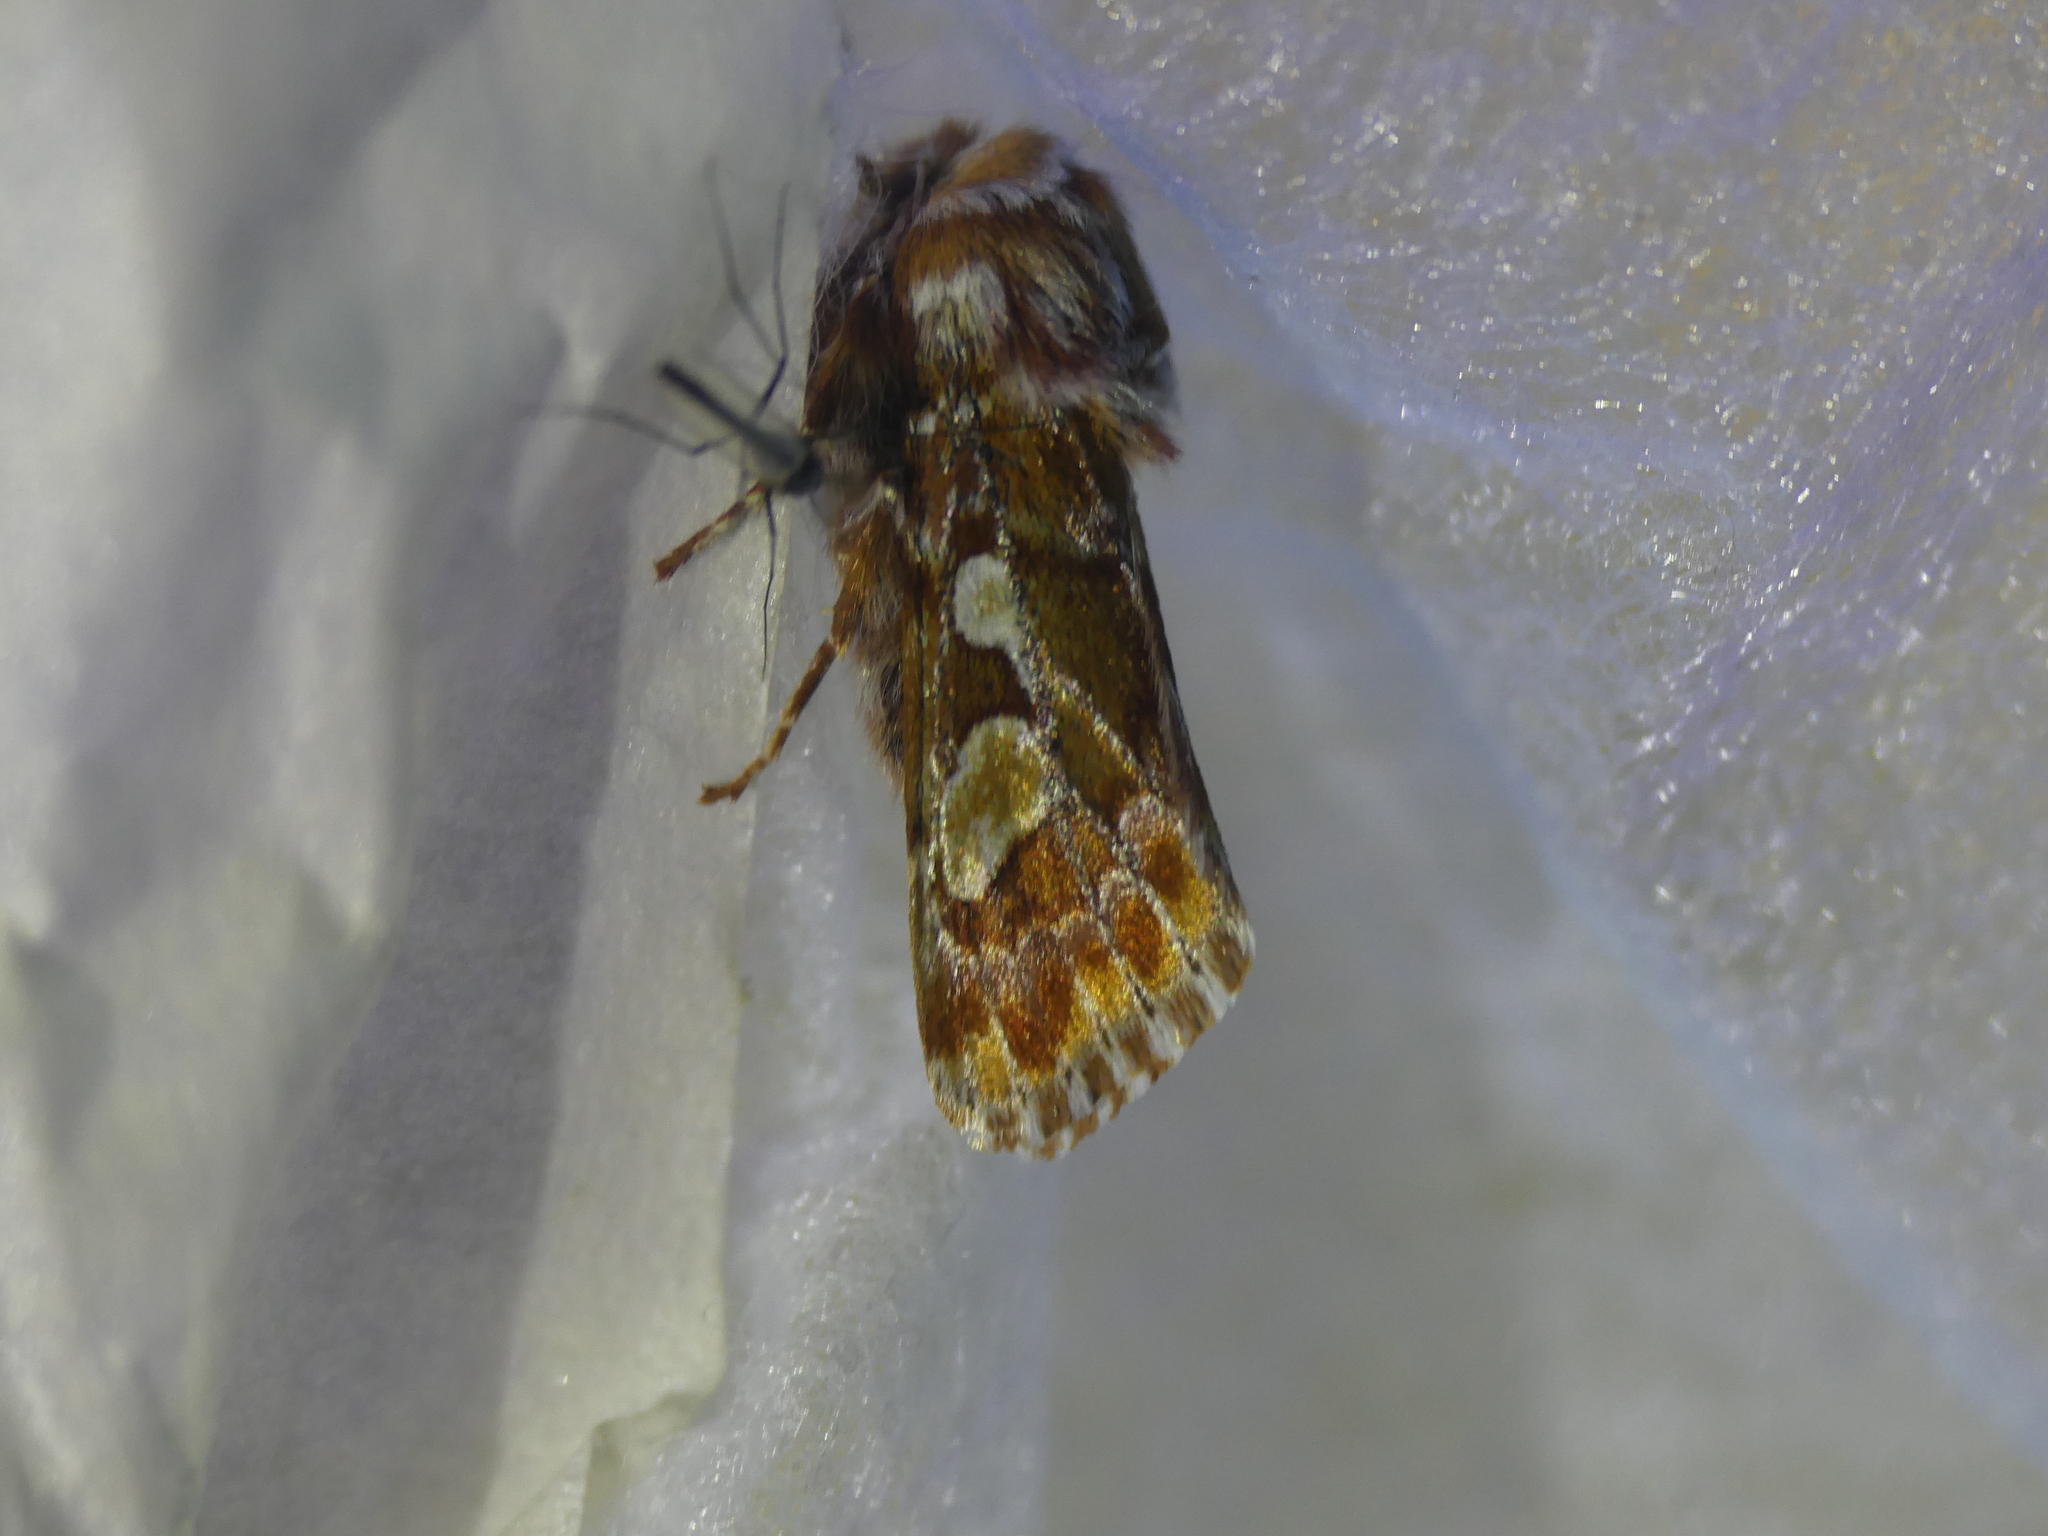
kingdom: Animalia
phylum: Arthropoda
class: Insecta
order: Lepidoptera
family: Noctuidae
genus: Panolis
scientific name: Panolis flammea
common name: Pine beauty
